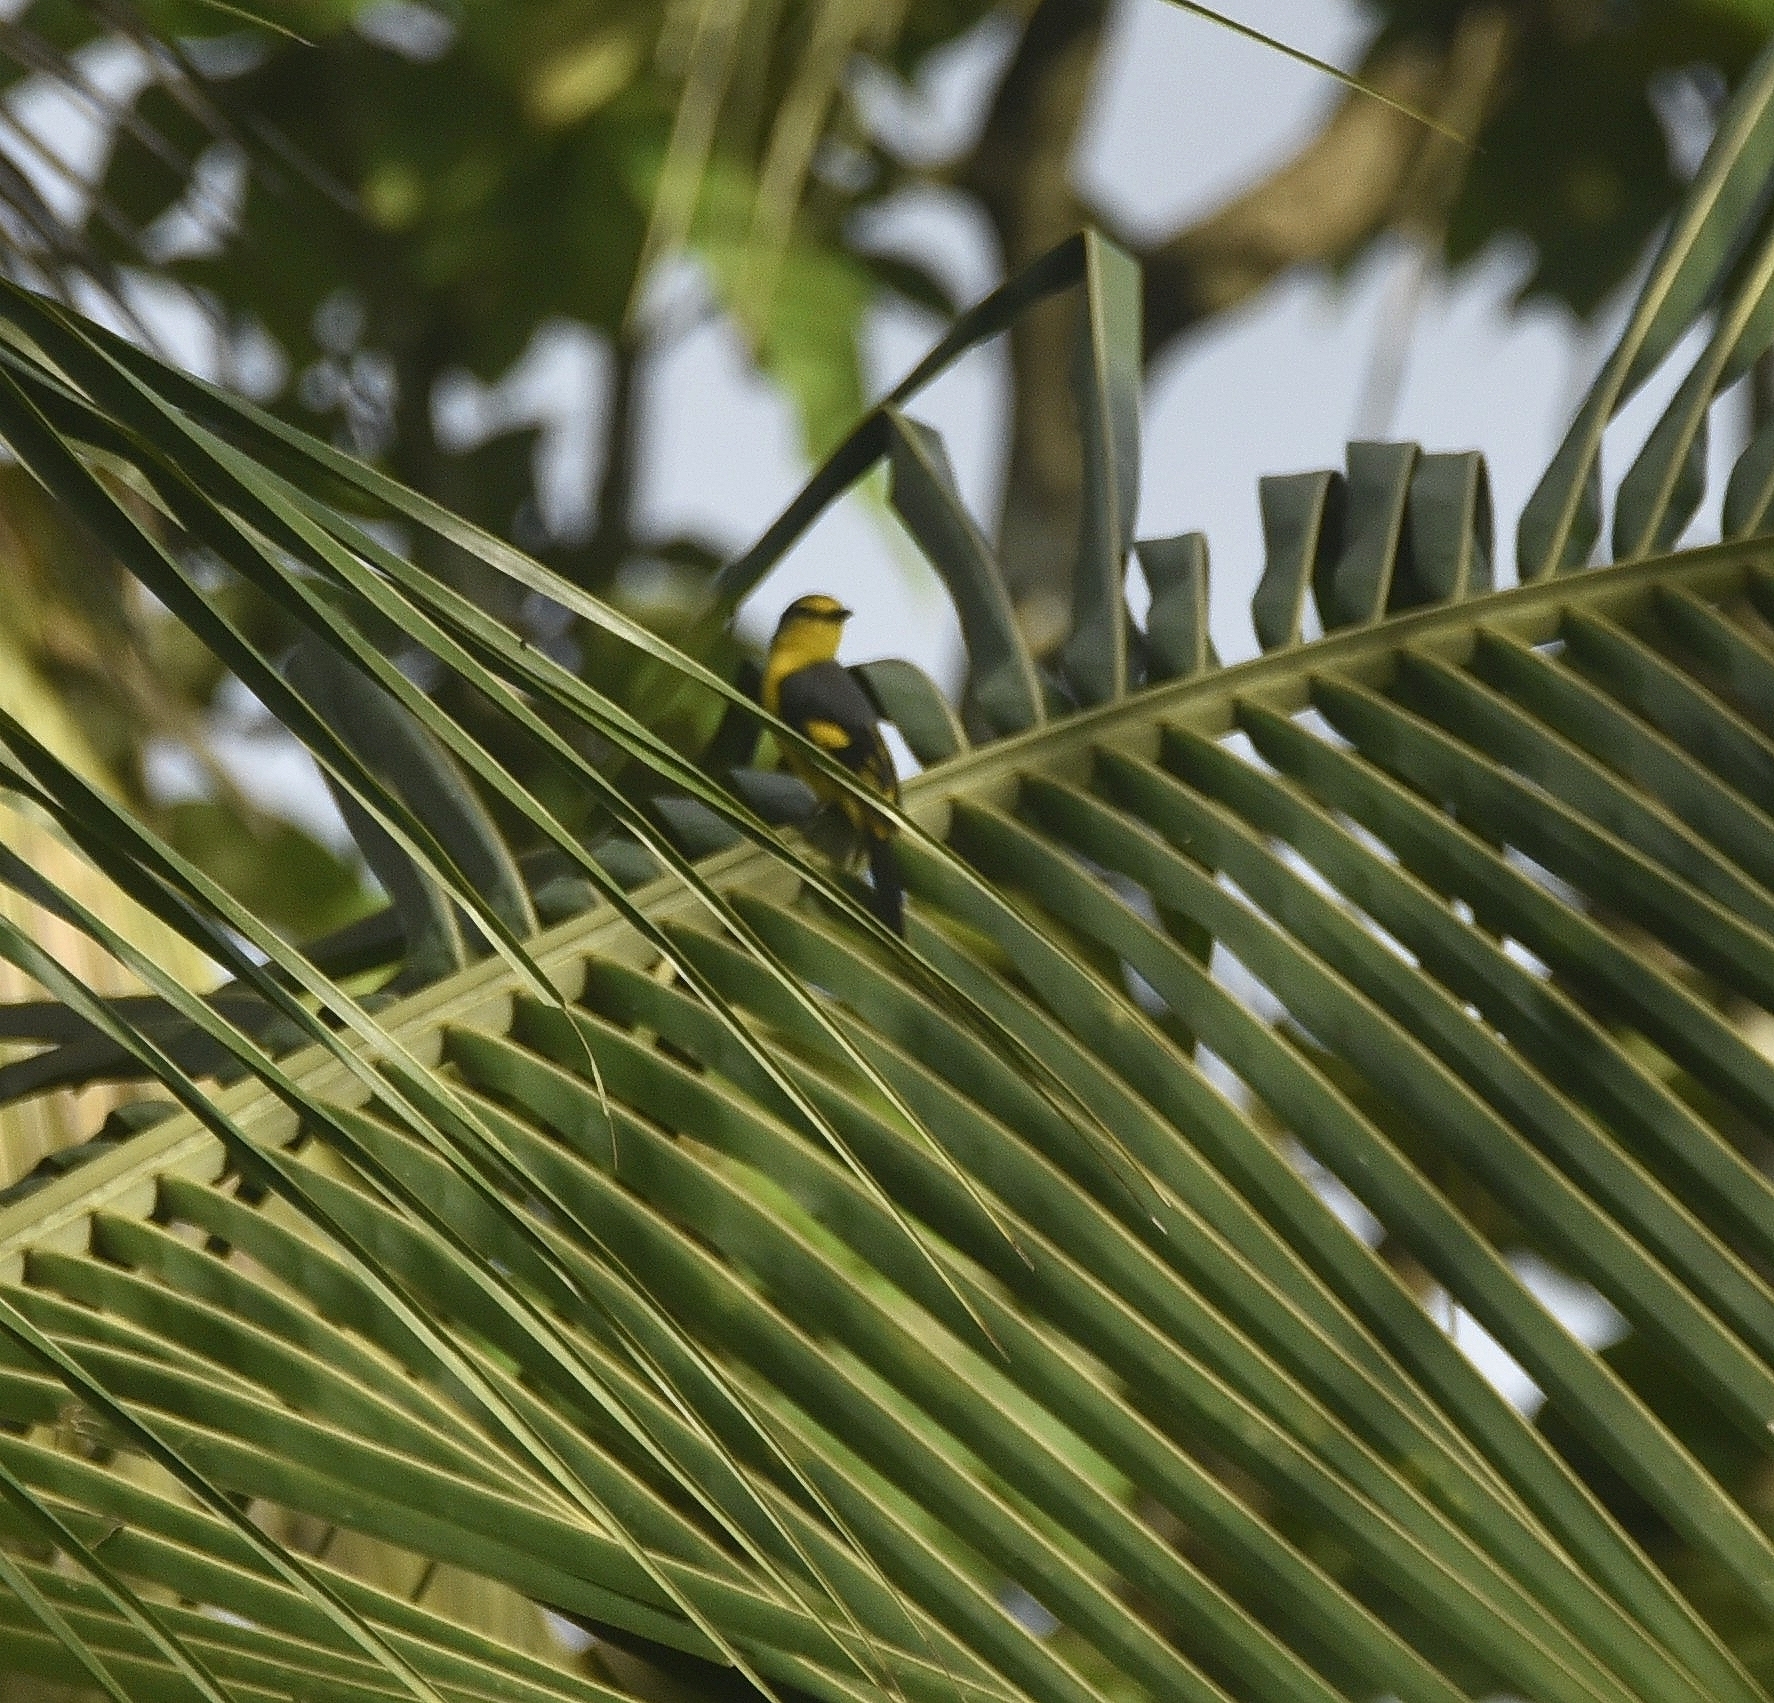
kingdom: Animalia
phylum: Chordata
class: Aves
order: Passeriformes
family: Campephagidae
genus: Pericrocotus
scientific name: Pericrocotus flammeus
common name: Orange minivet
